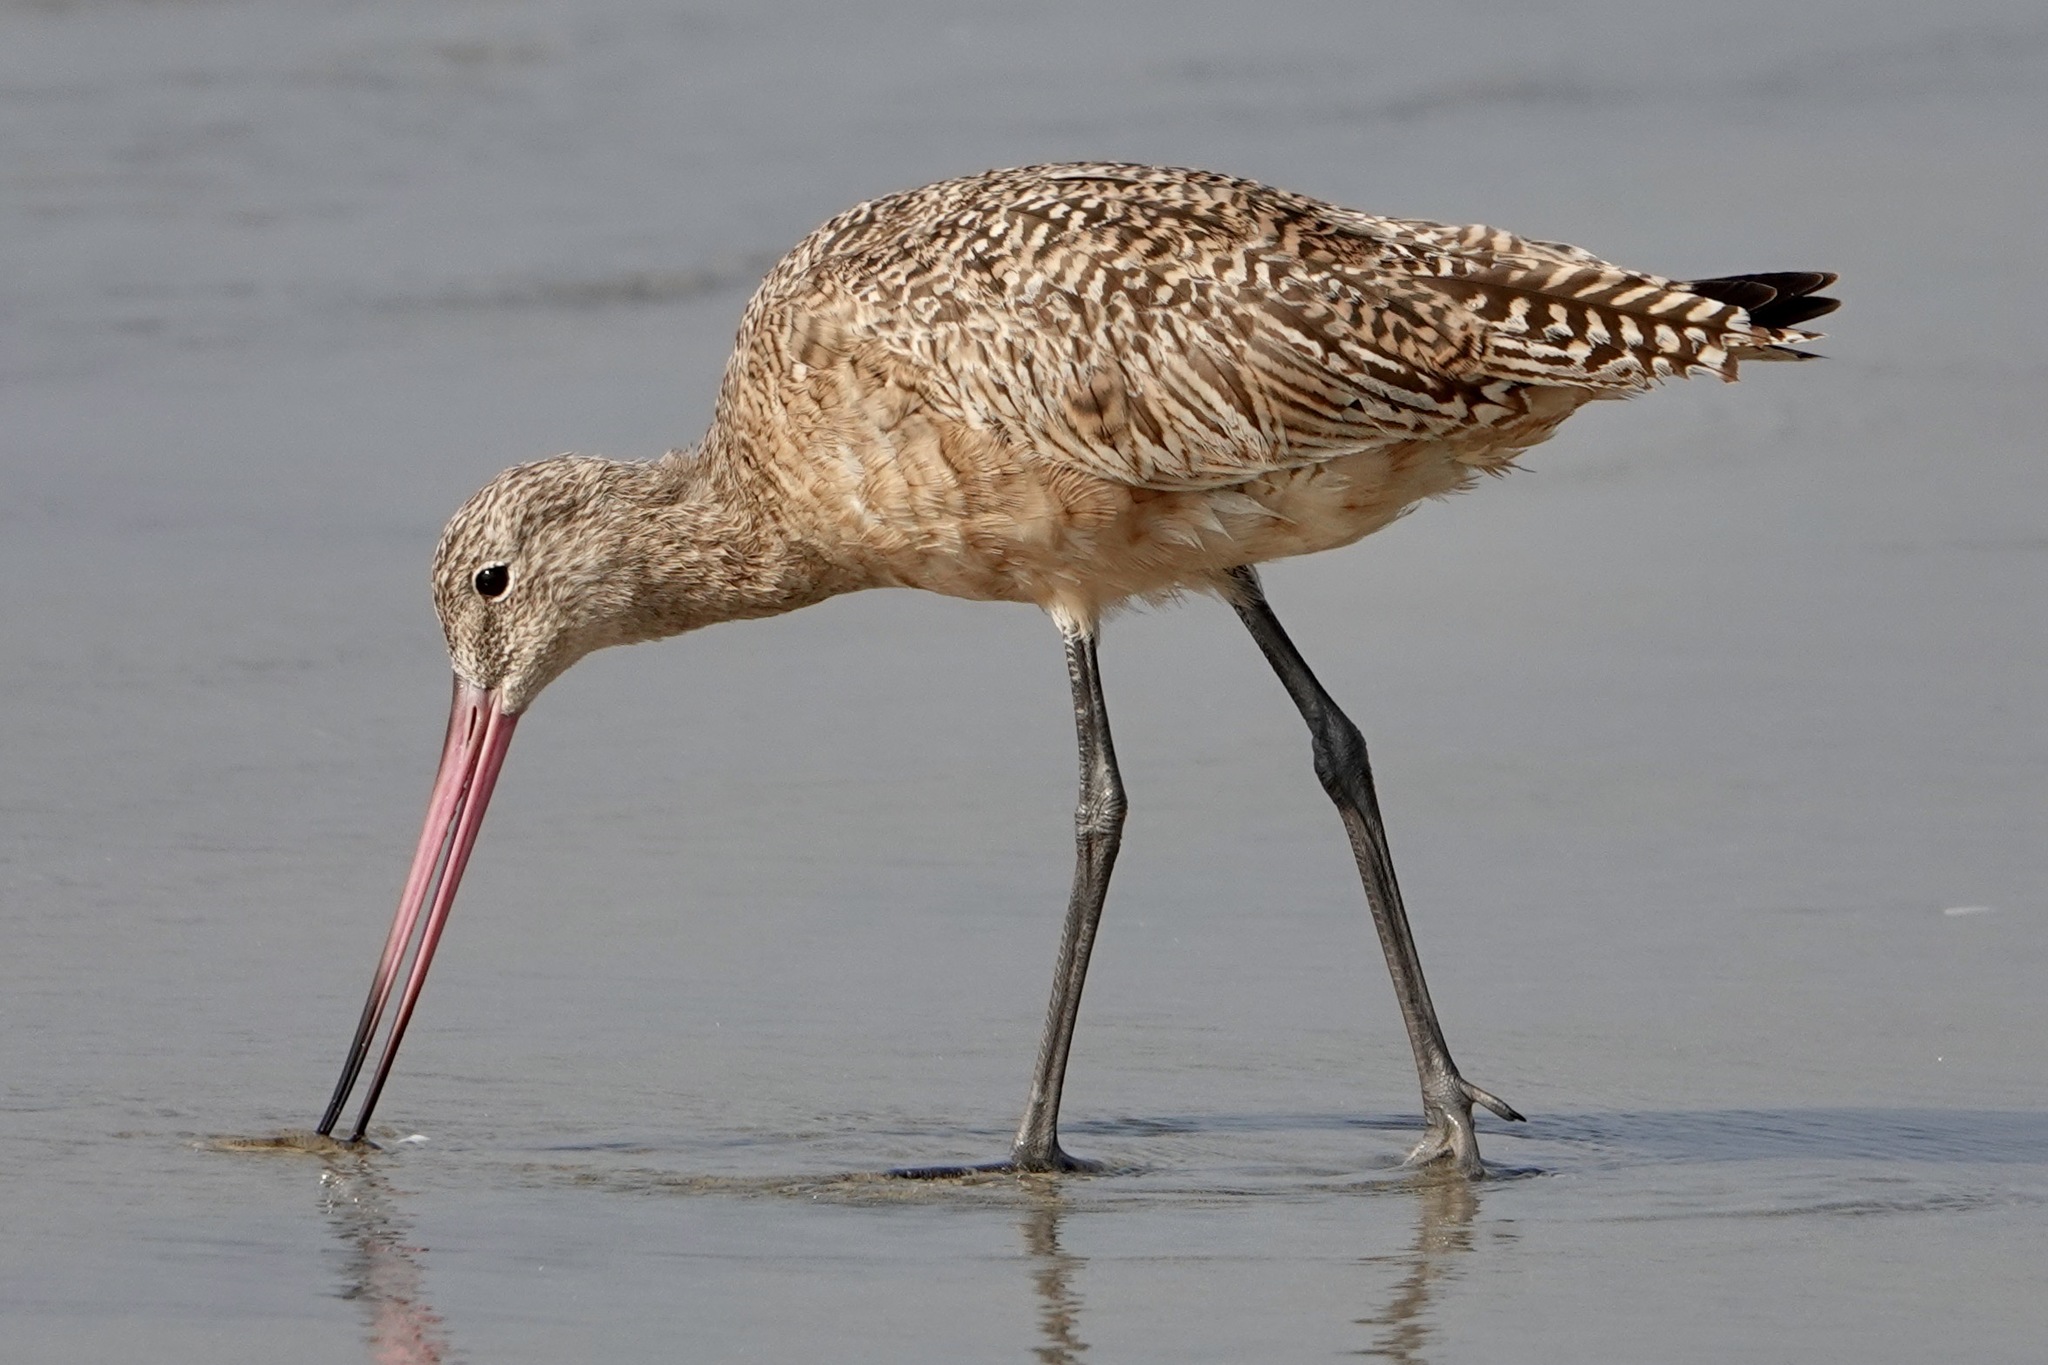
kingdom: Animalia
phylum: Chordata
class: Aves
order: Charadriiformes
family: Scolopacidae
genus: Limosa
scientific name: Limosa fedoa
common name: Marbled godwit
